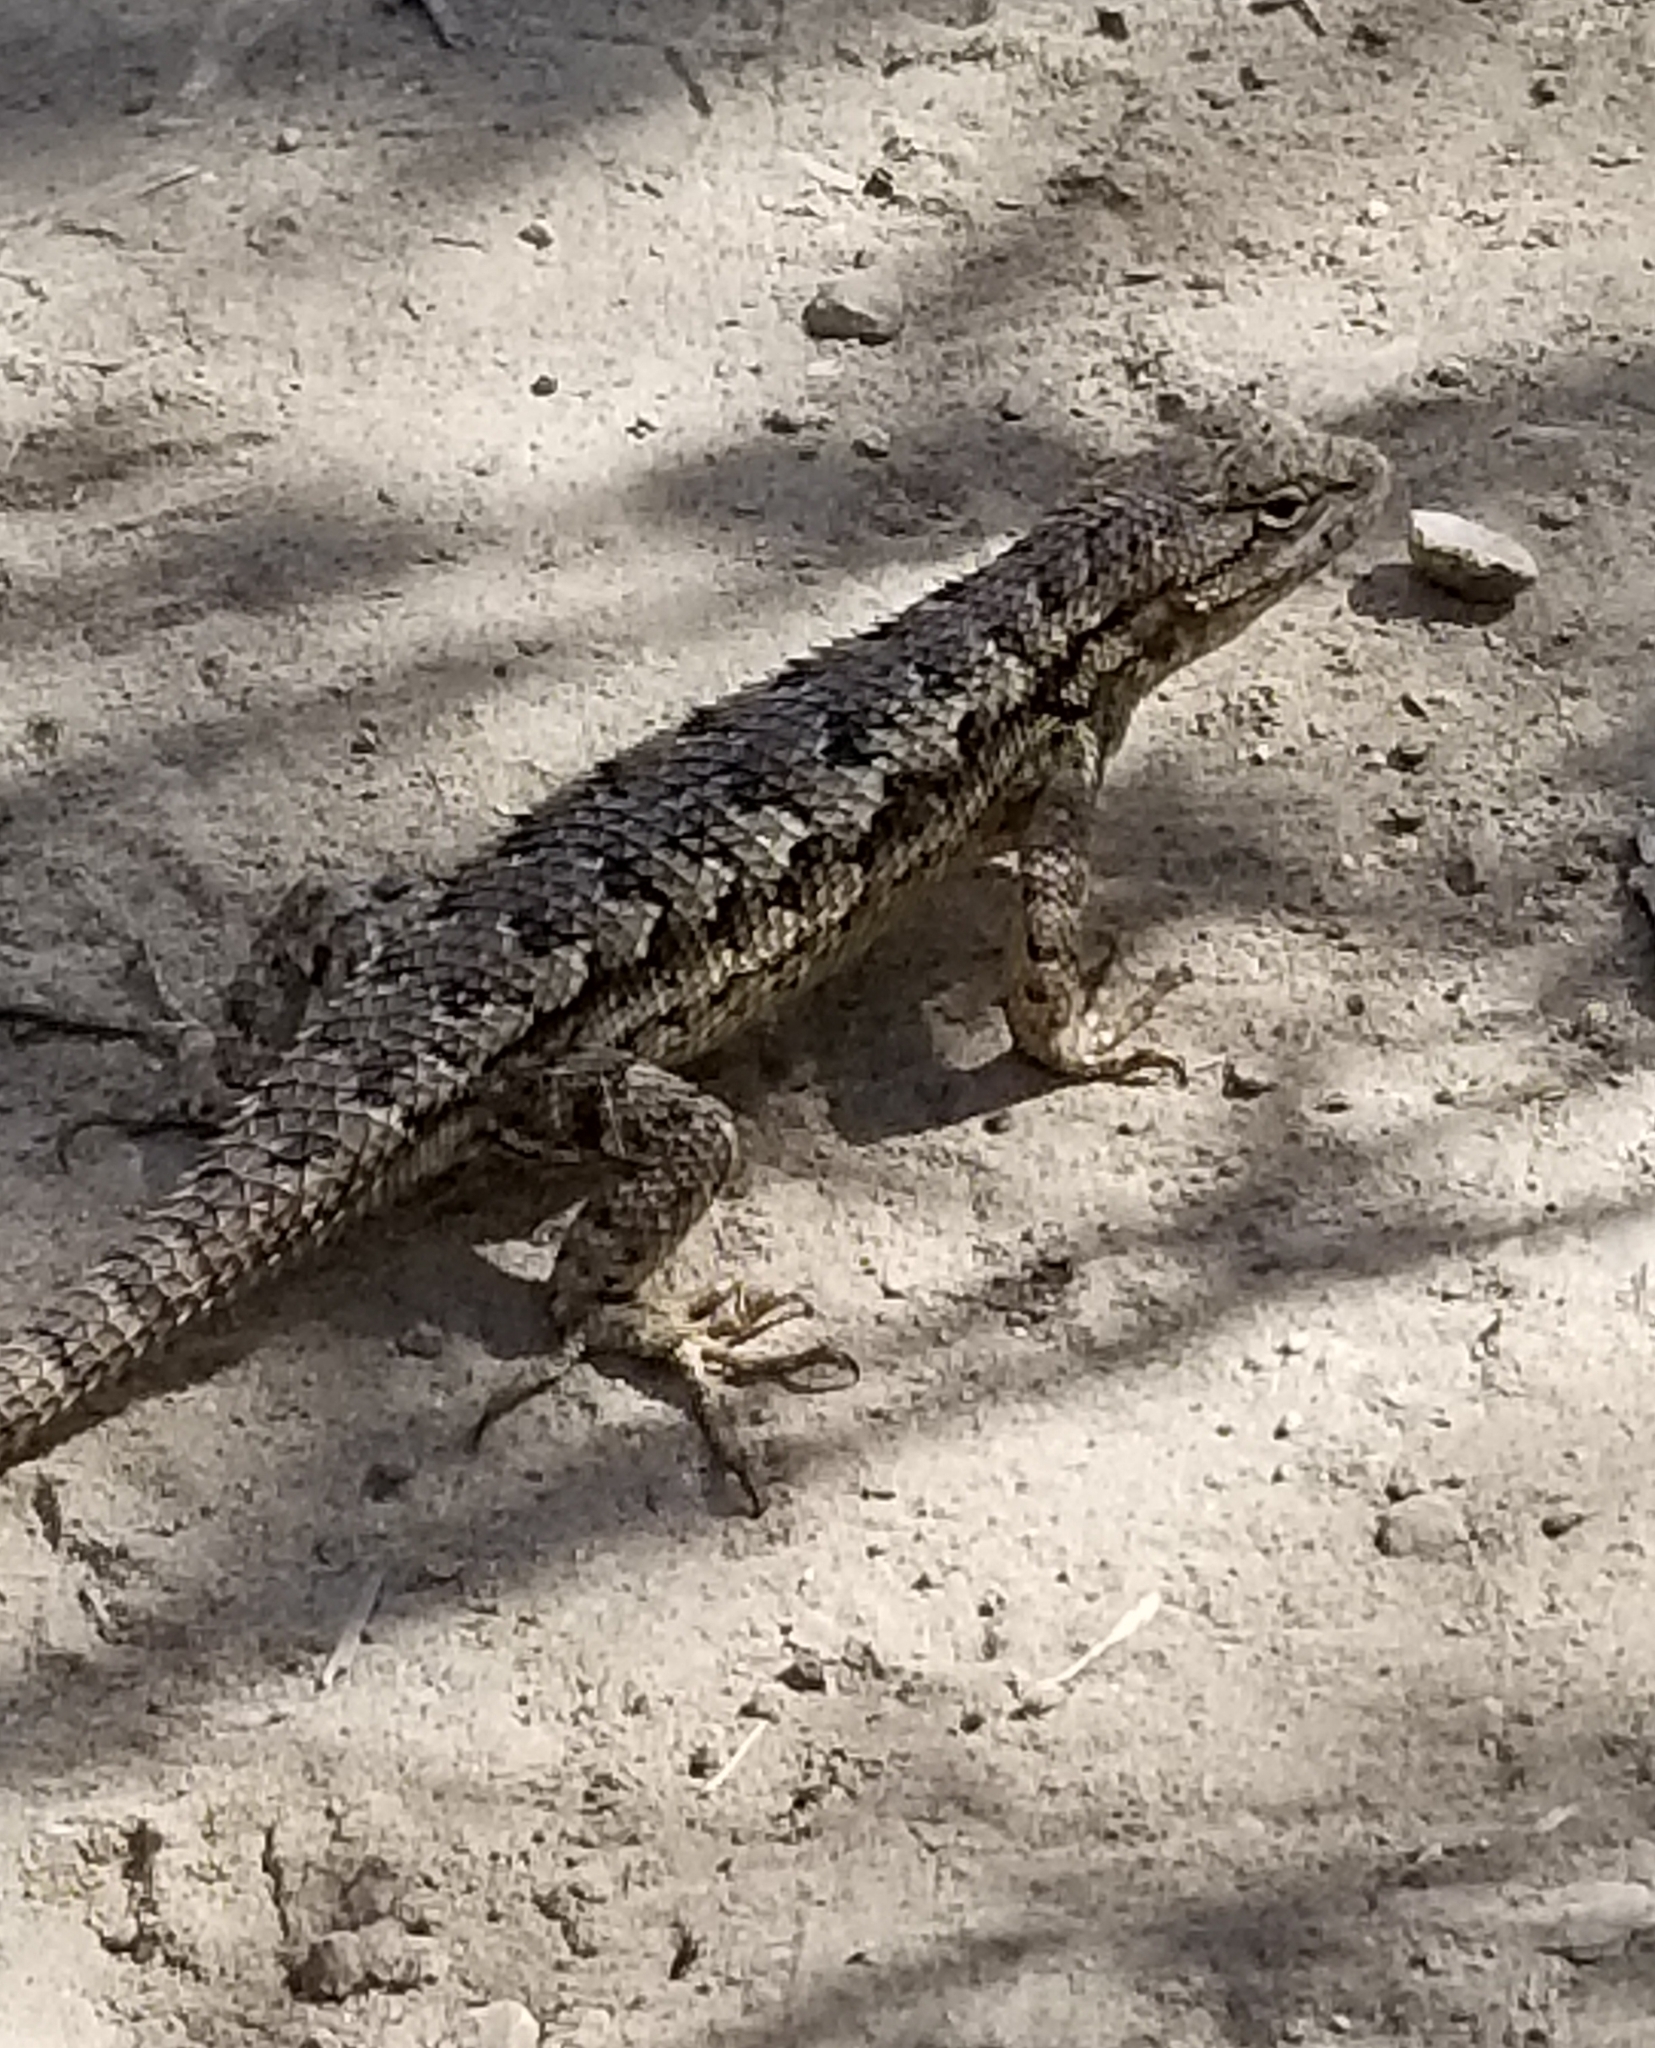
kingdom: Animalia
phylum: Chordata
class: Squamata
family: Phrynosomatidae
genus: Sceloporus
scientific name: Sceloporus occidentalis
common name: Western fence lizard
